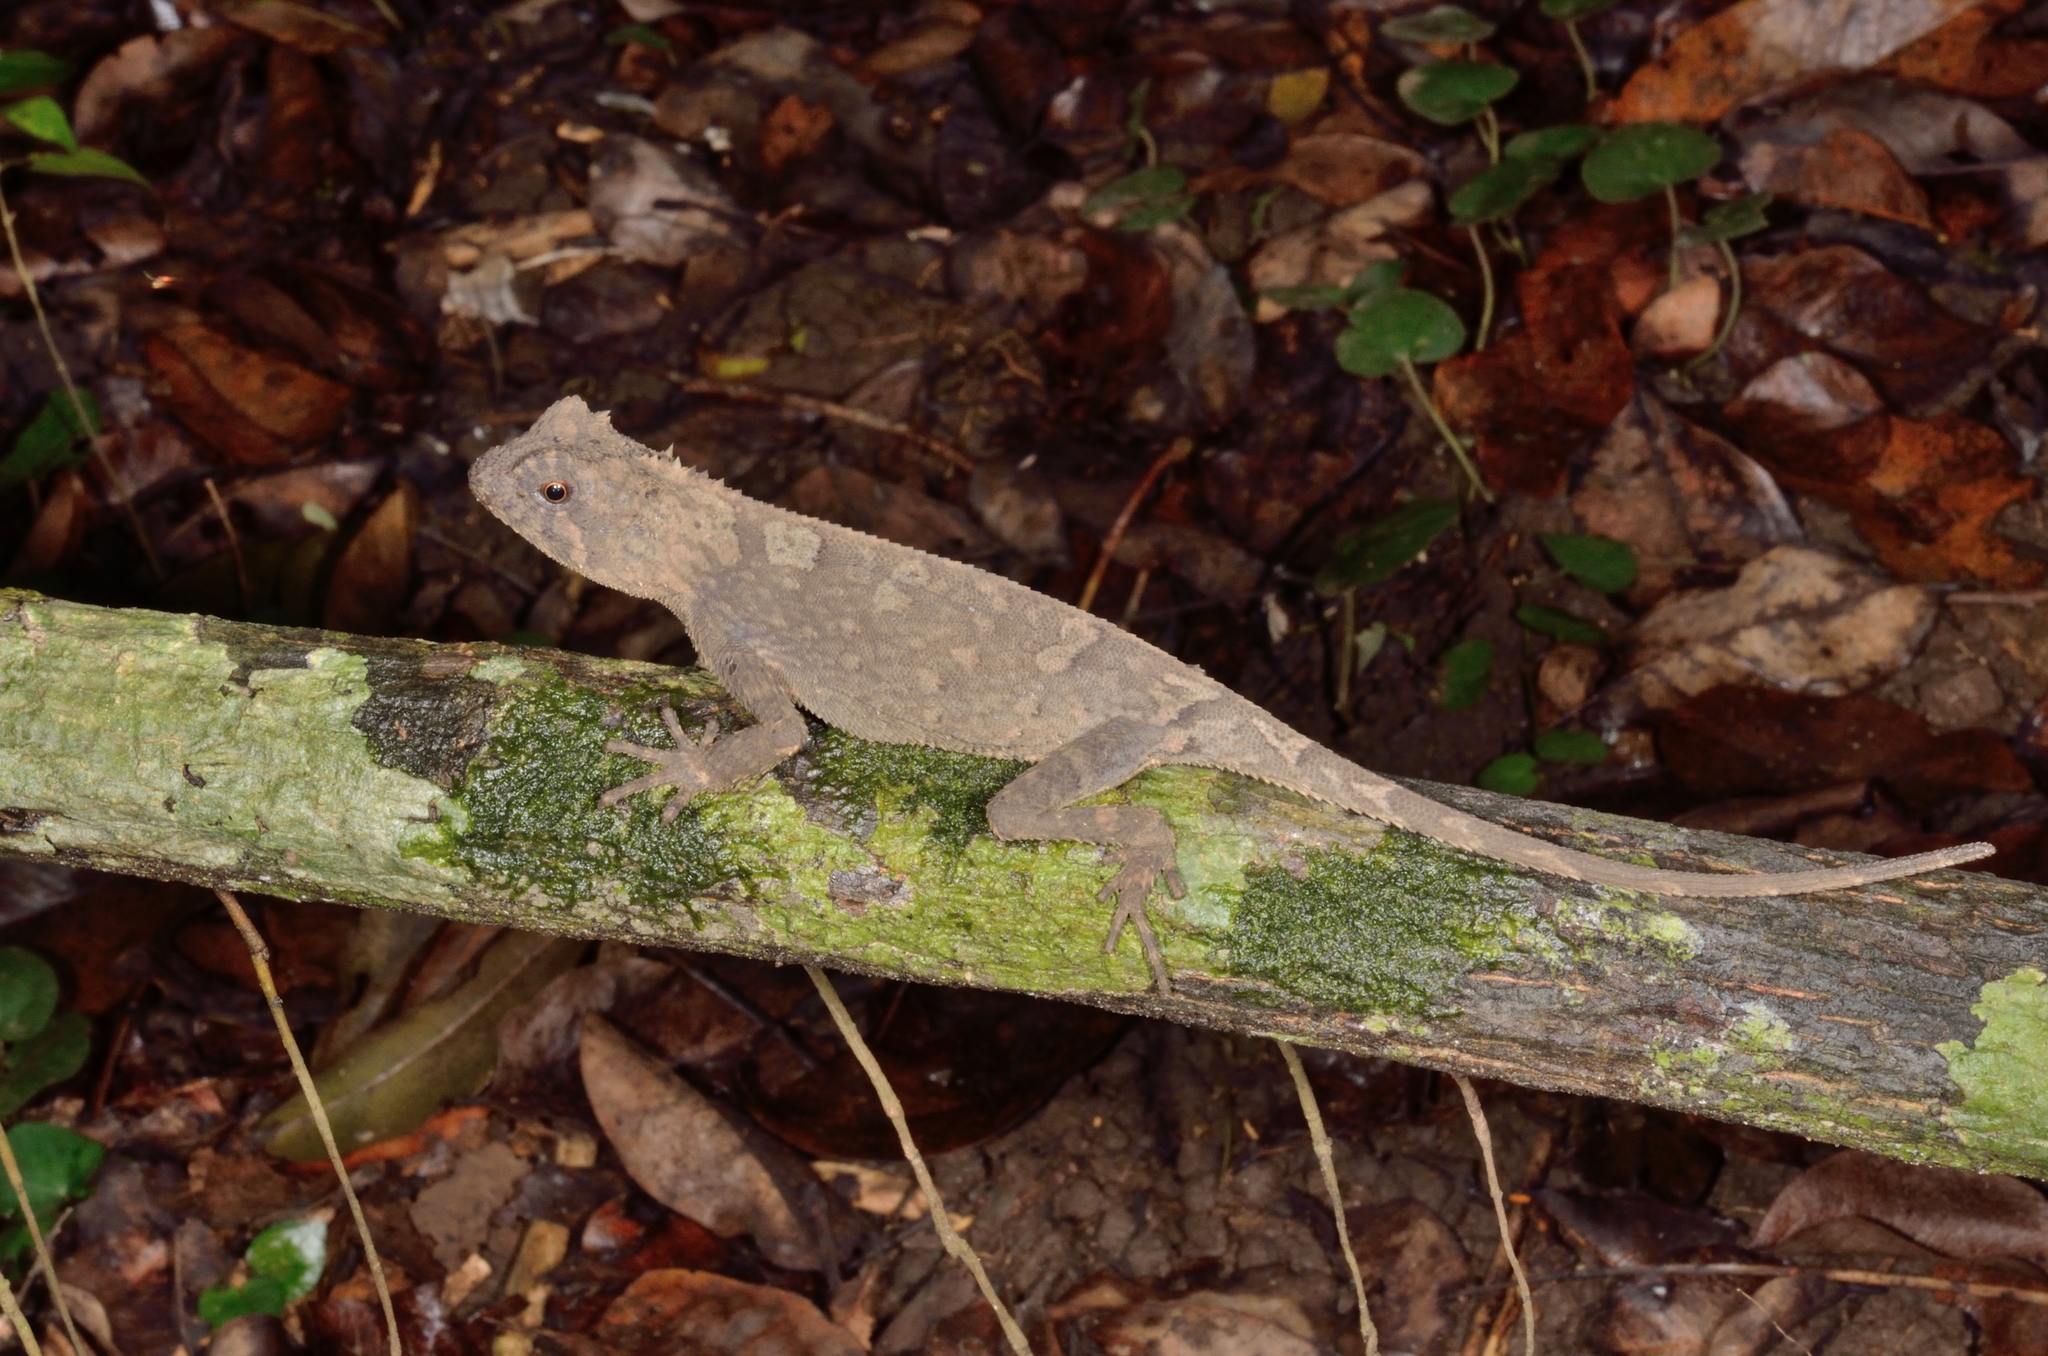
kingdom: Animalia
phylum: Chordata
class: Squamata
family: Agamidae
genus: Acanthosaura
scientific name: Acanthosaura coronata
